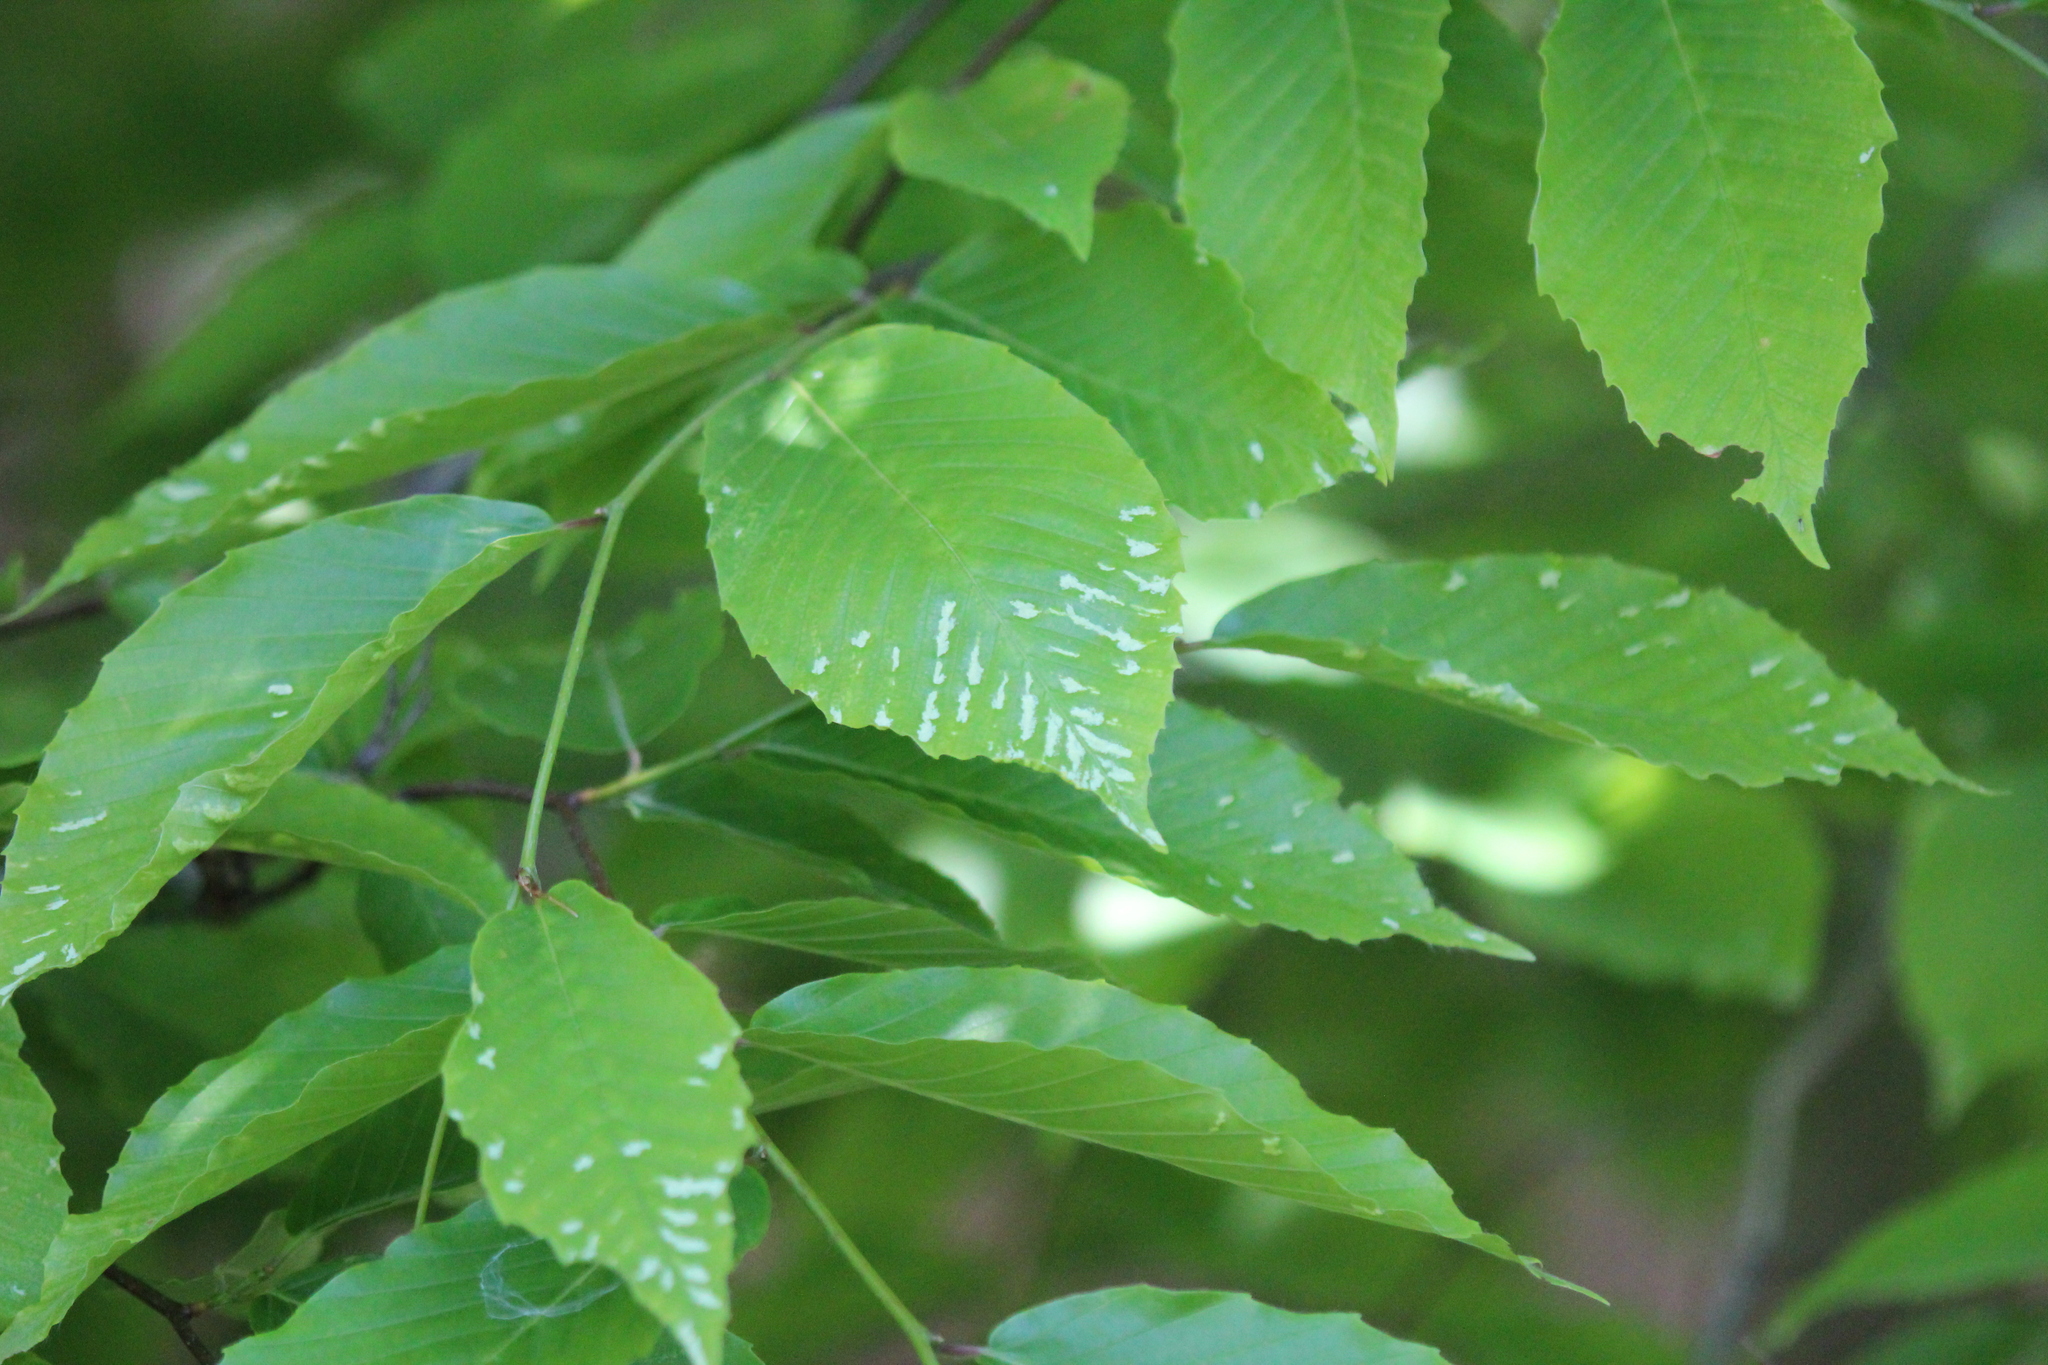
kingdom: Plantae
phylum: Tracheophyta
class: Magnoliopsida
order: Fagales
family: Fagaceae
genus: Fagus
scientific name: Fagus grandifolia
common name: American beech
